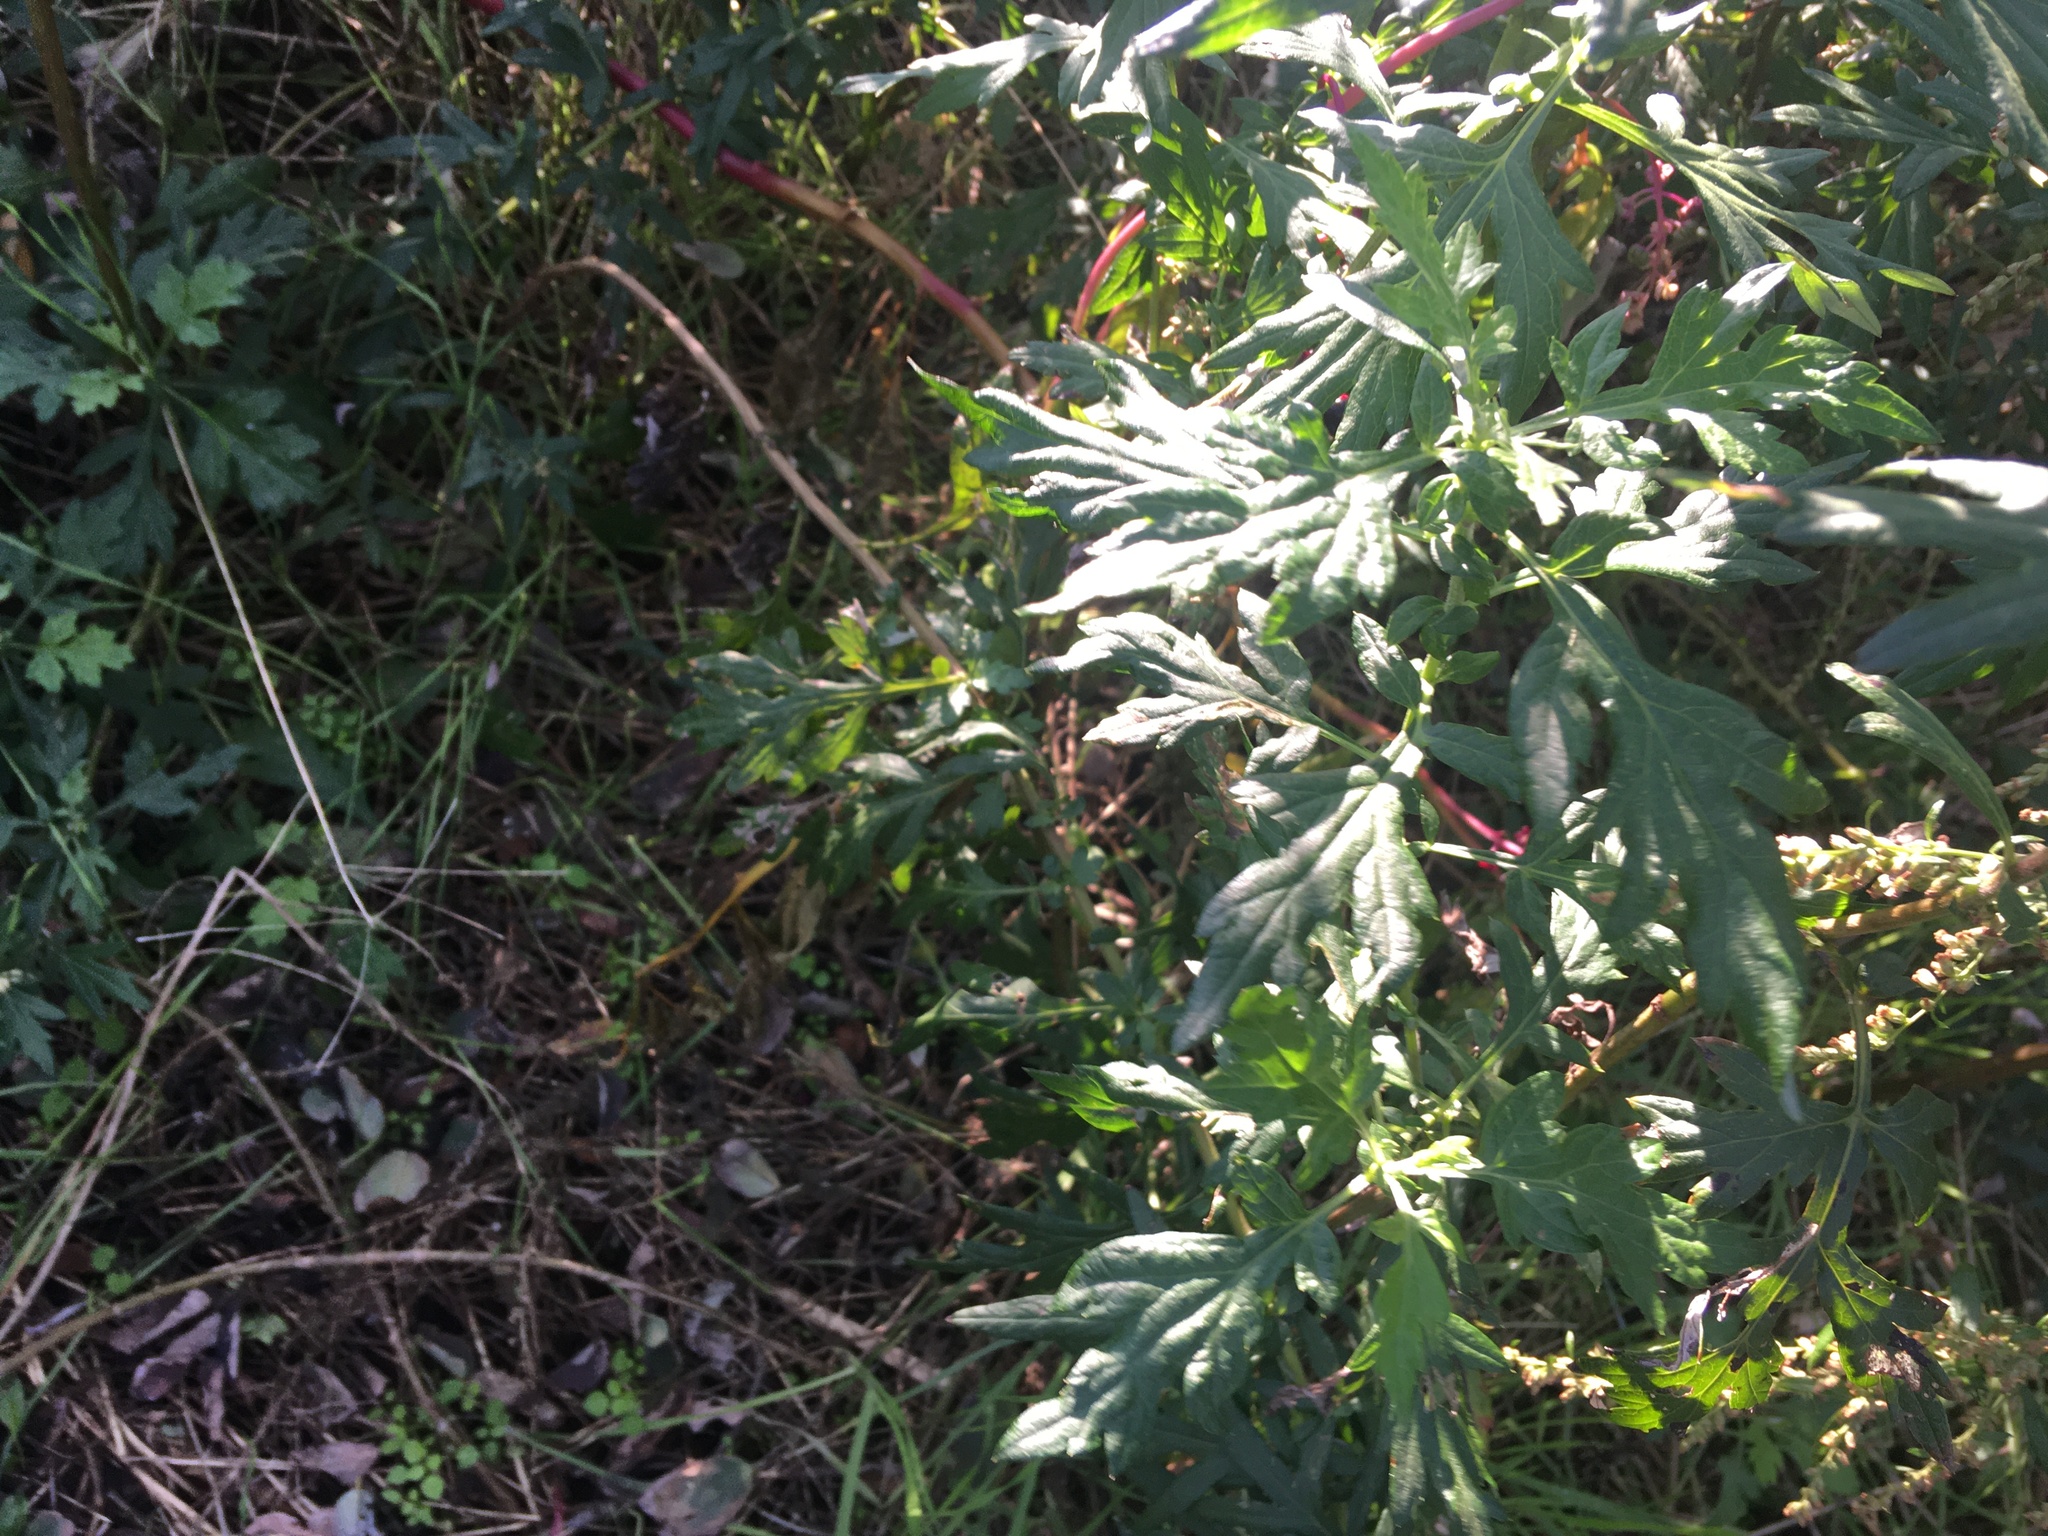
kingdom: Plantae
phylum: Tracheophyta
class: Magnoliopsida
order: Asterales
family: Asteraceae
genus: Artemisia
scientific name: Artemisia vulgaris
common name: Mugwort
